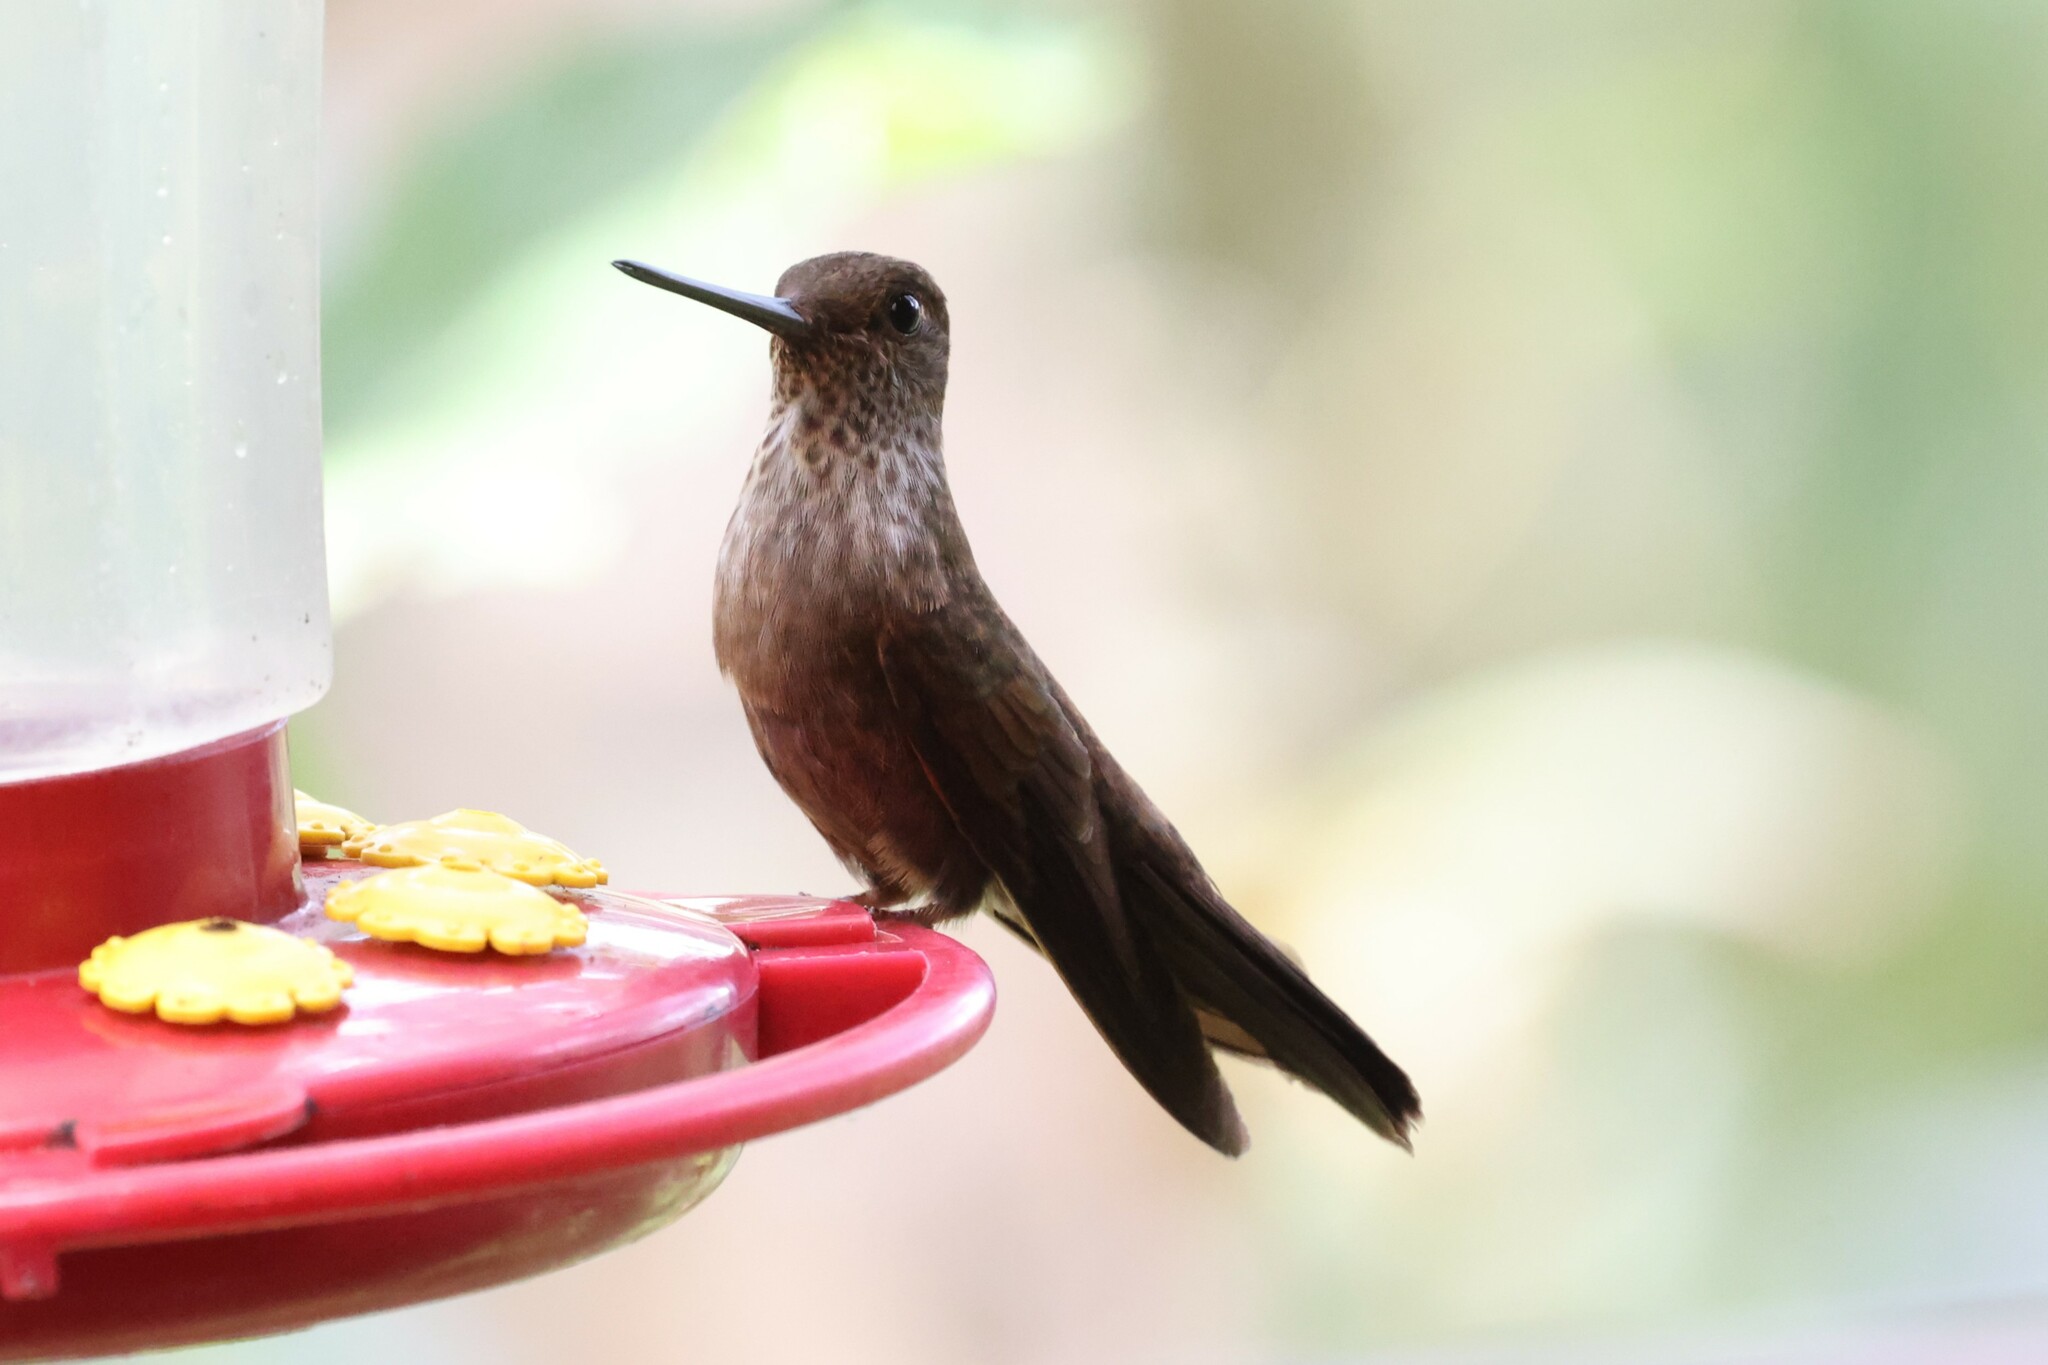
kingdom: Animalia
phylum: Chordata
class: Aves
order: Apodiformes
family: Trochilidae
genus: Coeligena
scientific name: Coeligena coeligena
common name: Bronzy inca
